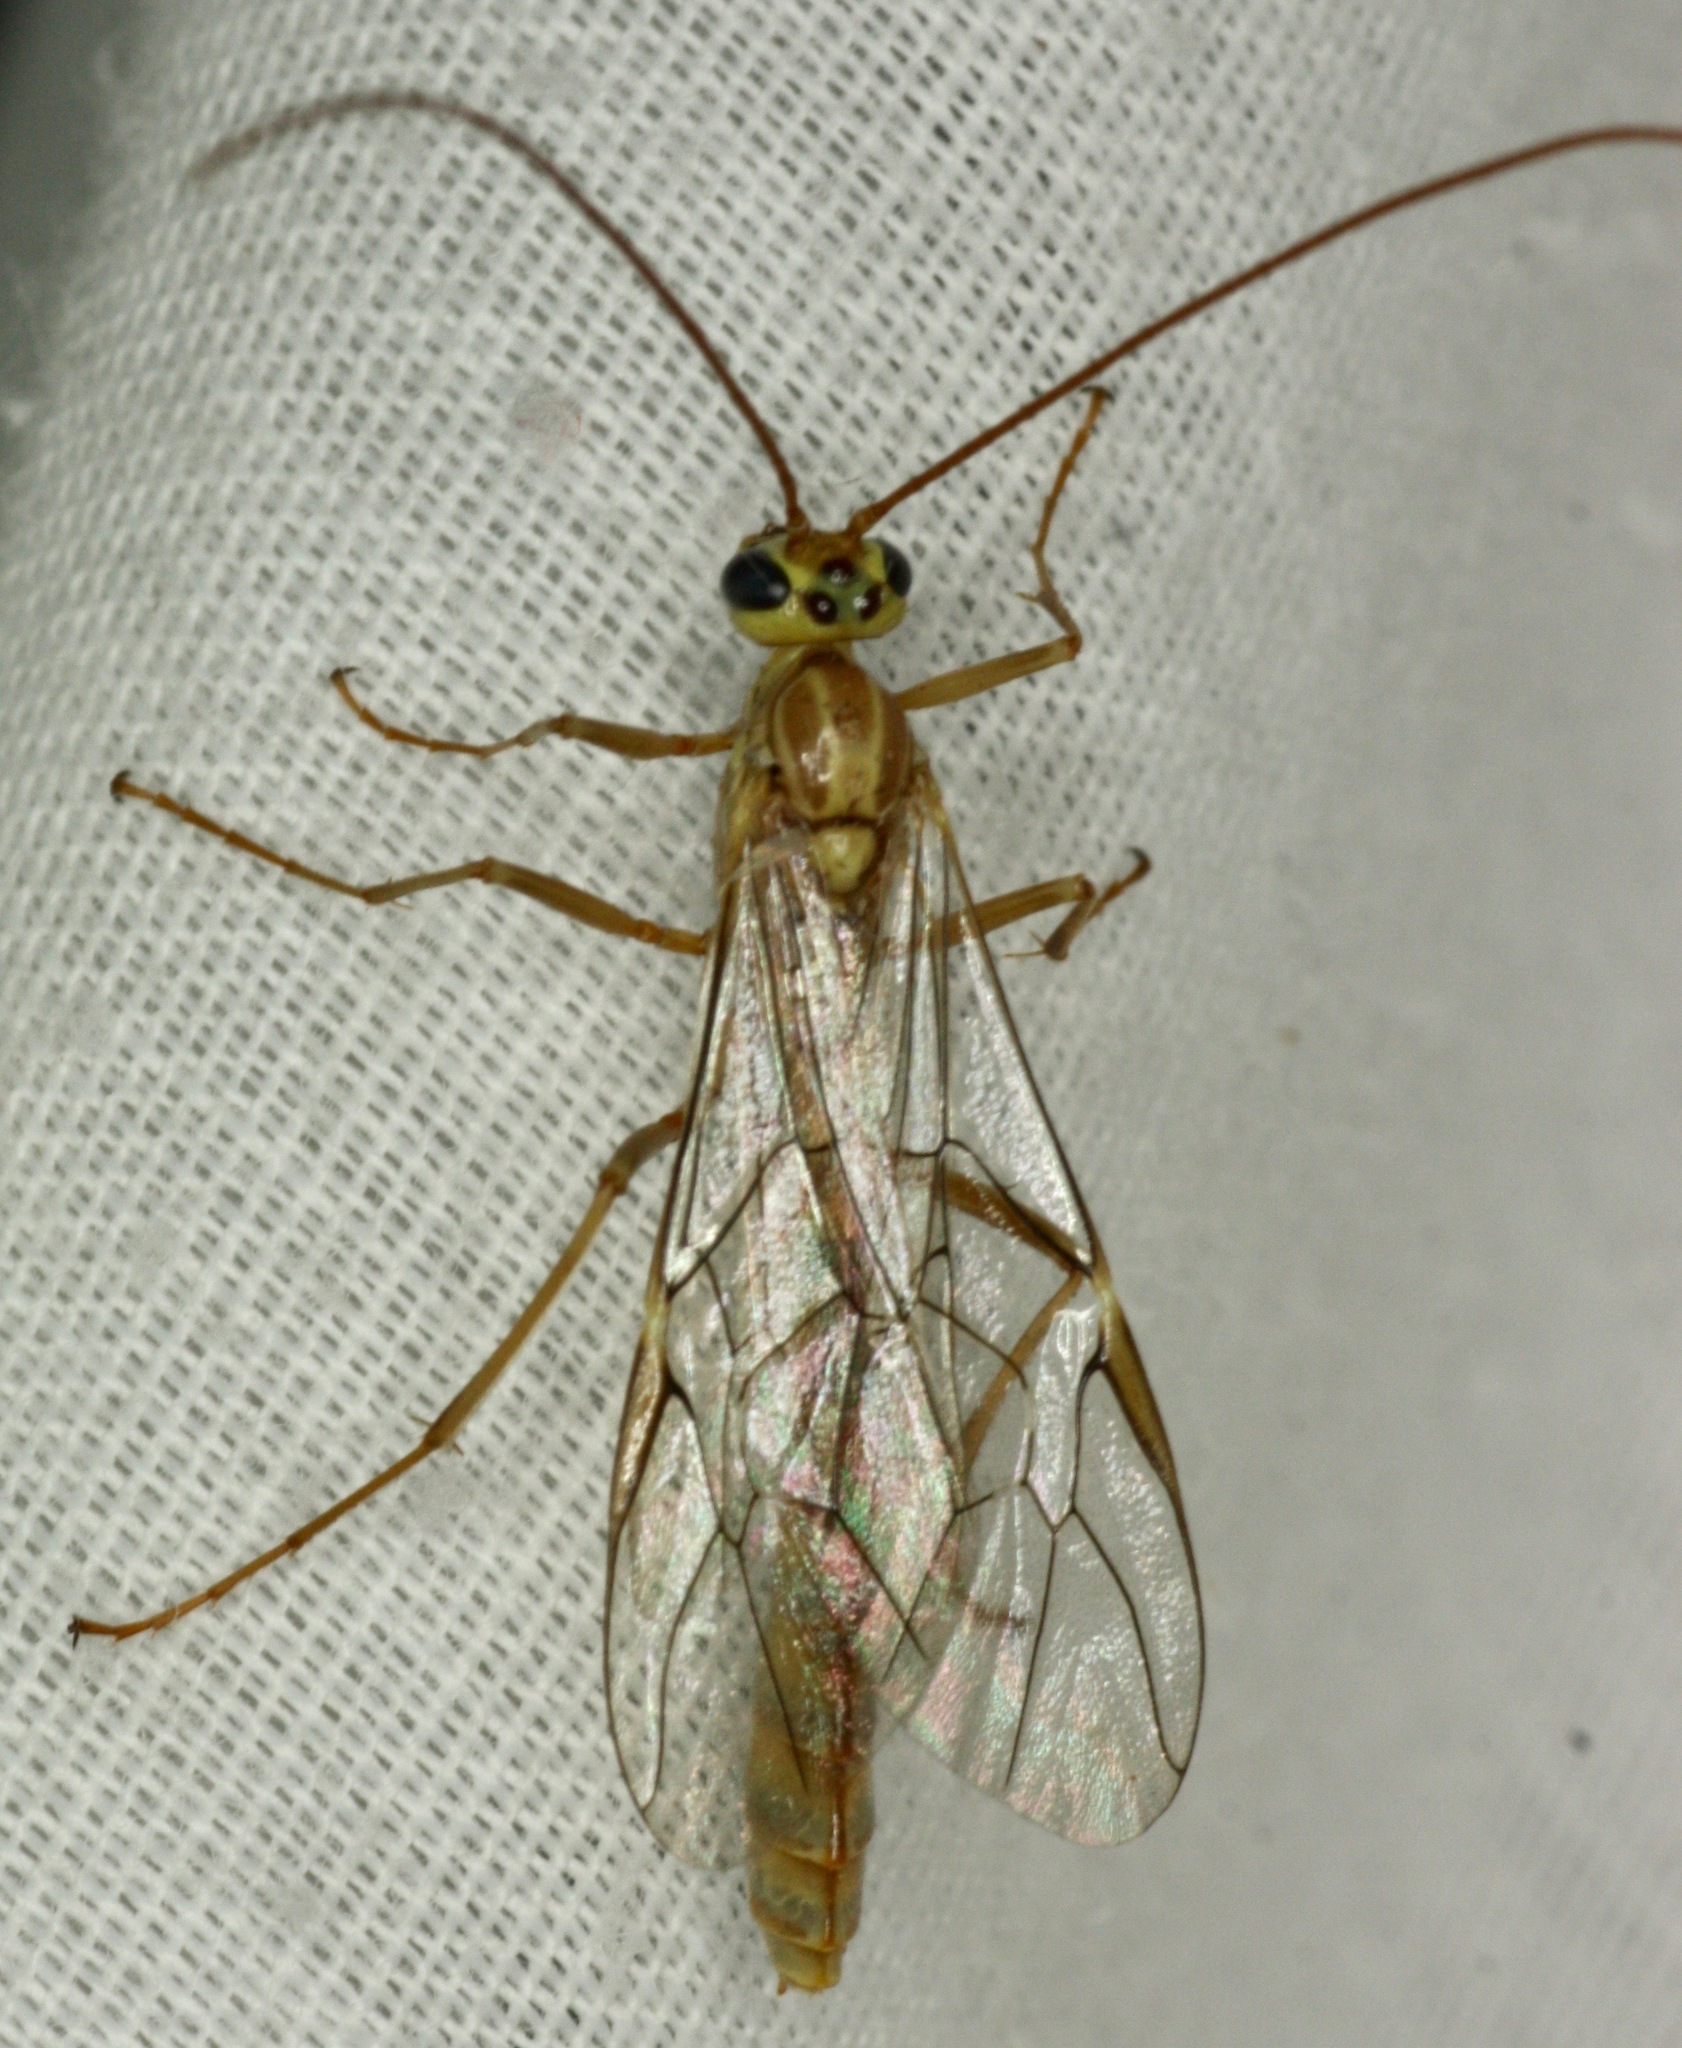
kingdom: Animalia
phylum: Arthropoda
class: Insecta
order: Hymenoptera
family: Ichneumonidae
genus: Eremotylus
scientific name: Eremotylus
